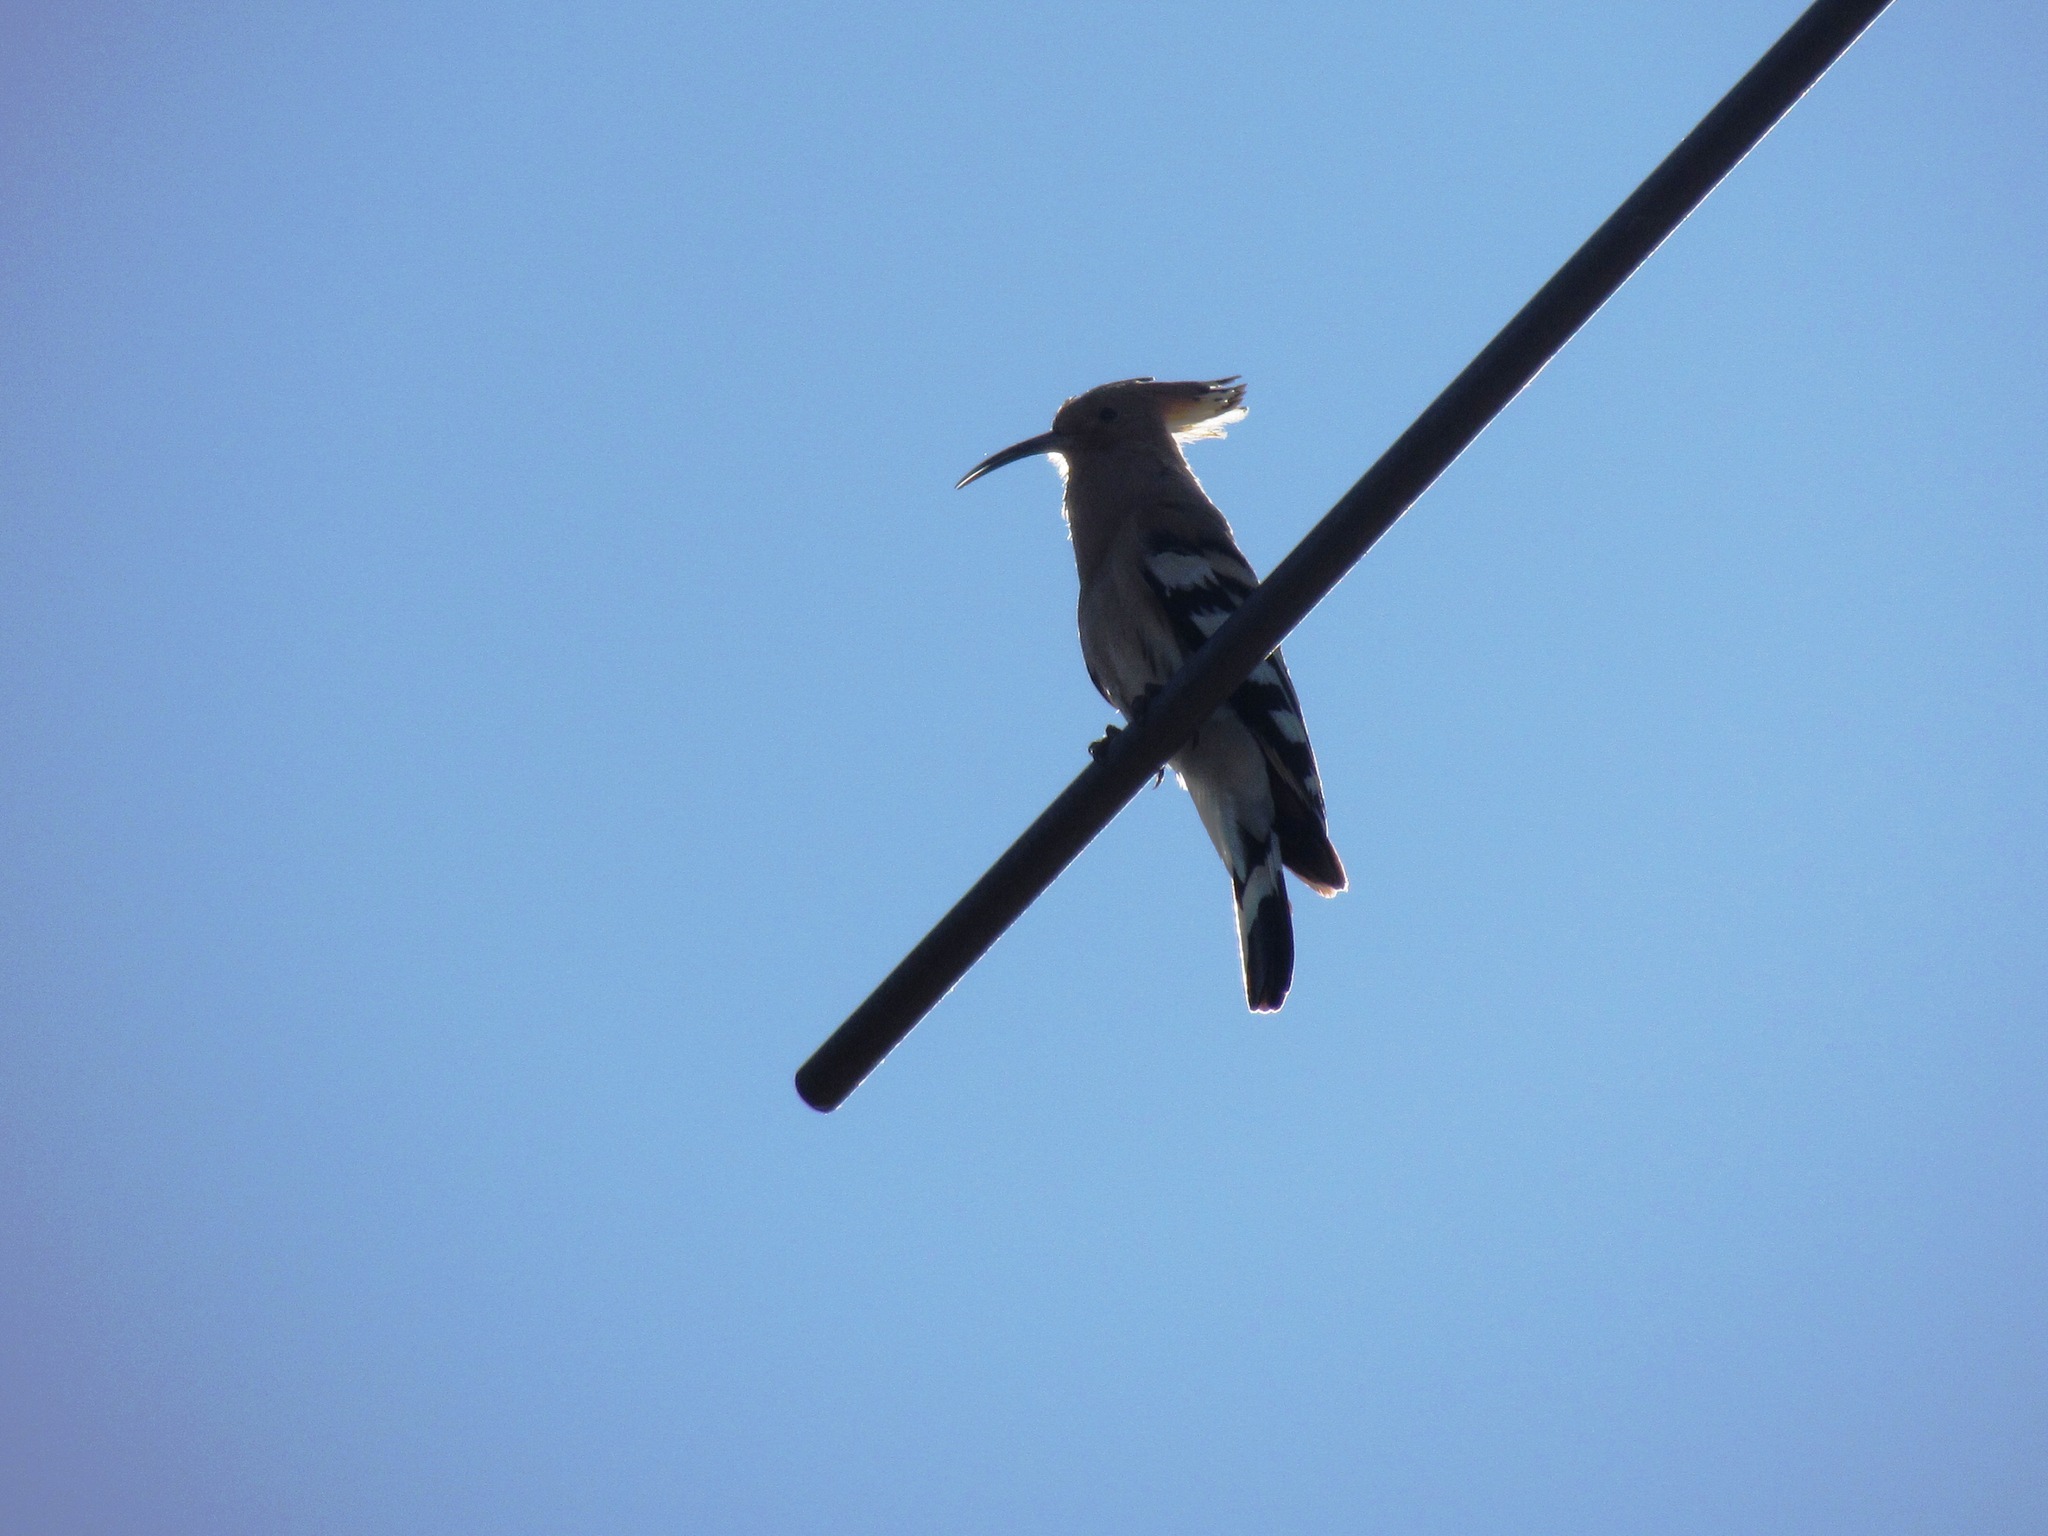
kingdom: Animalia
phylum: Chordata
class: Aves
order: Bucerotiformes
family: Upupidae
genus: Upupa
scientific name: Upupa epops
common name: Eurasian hoopoe
